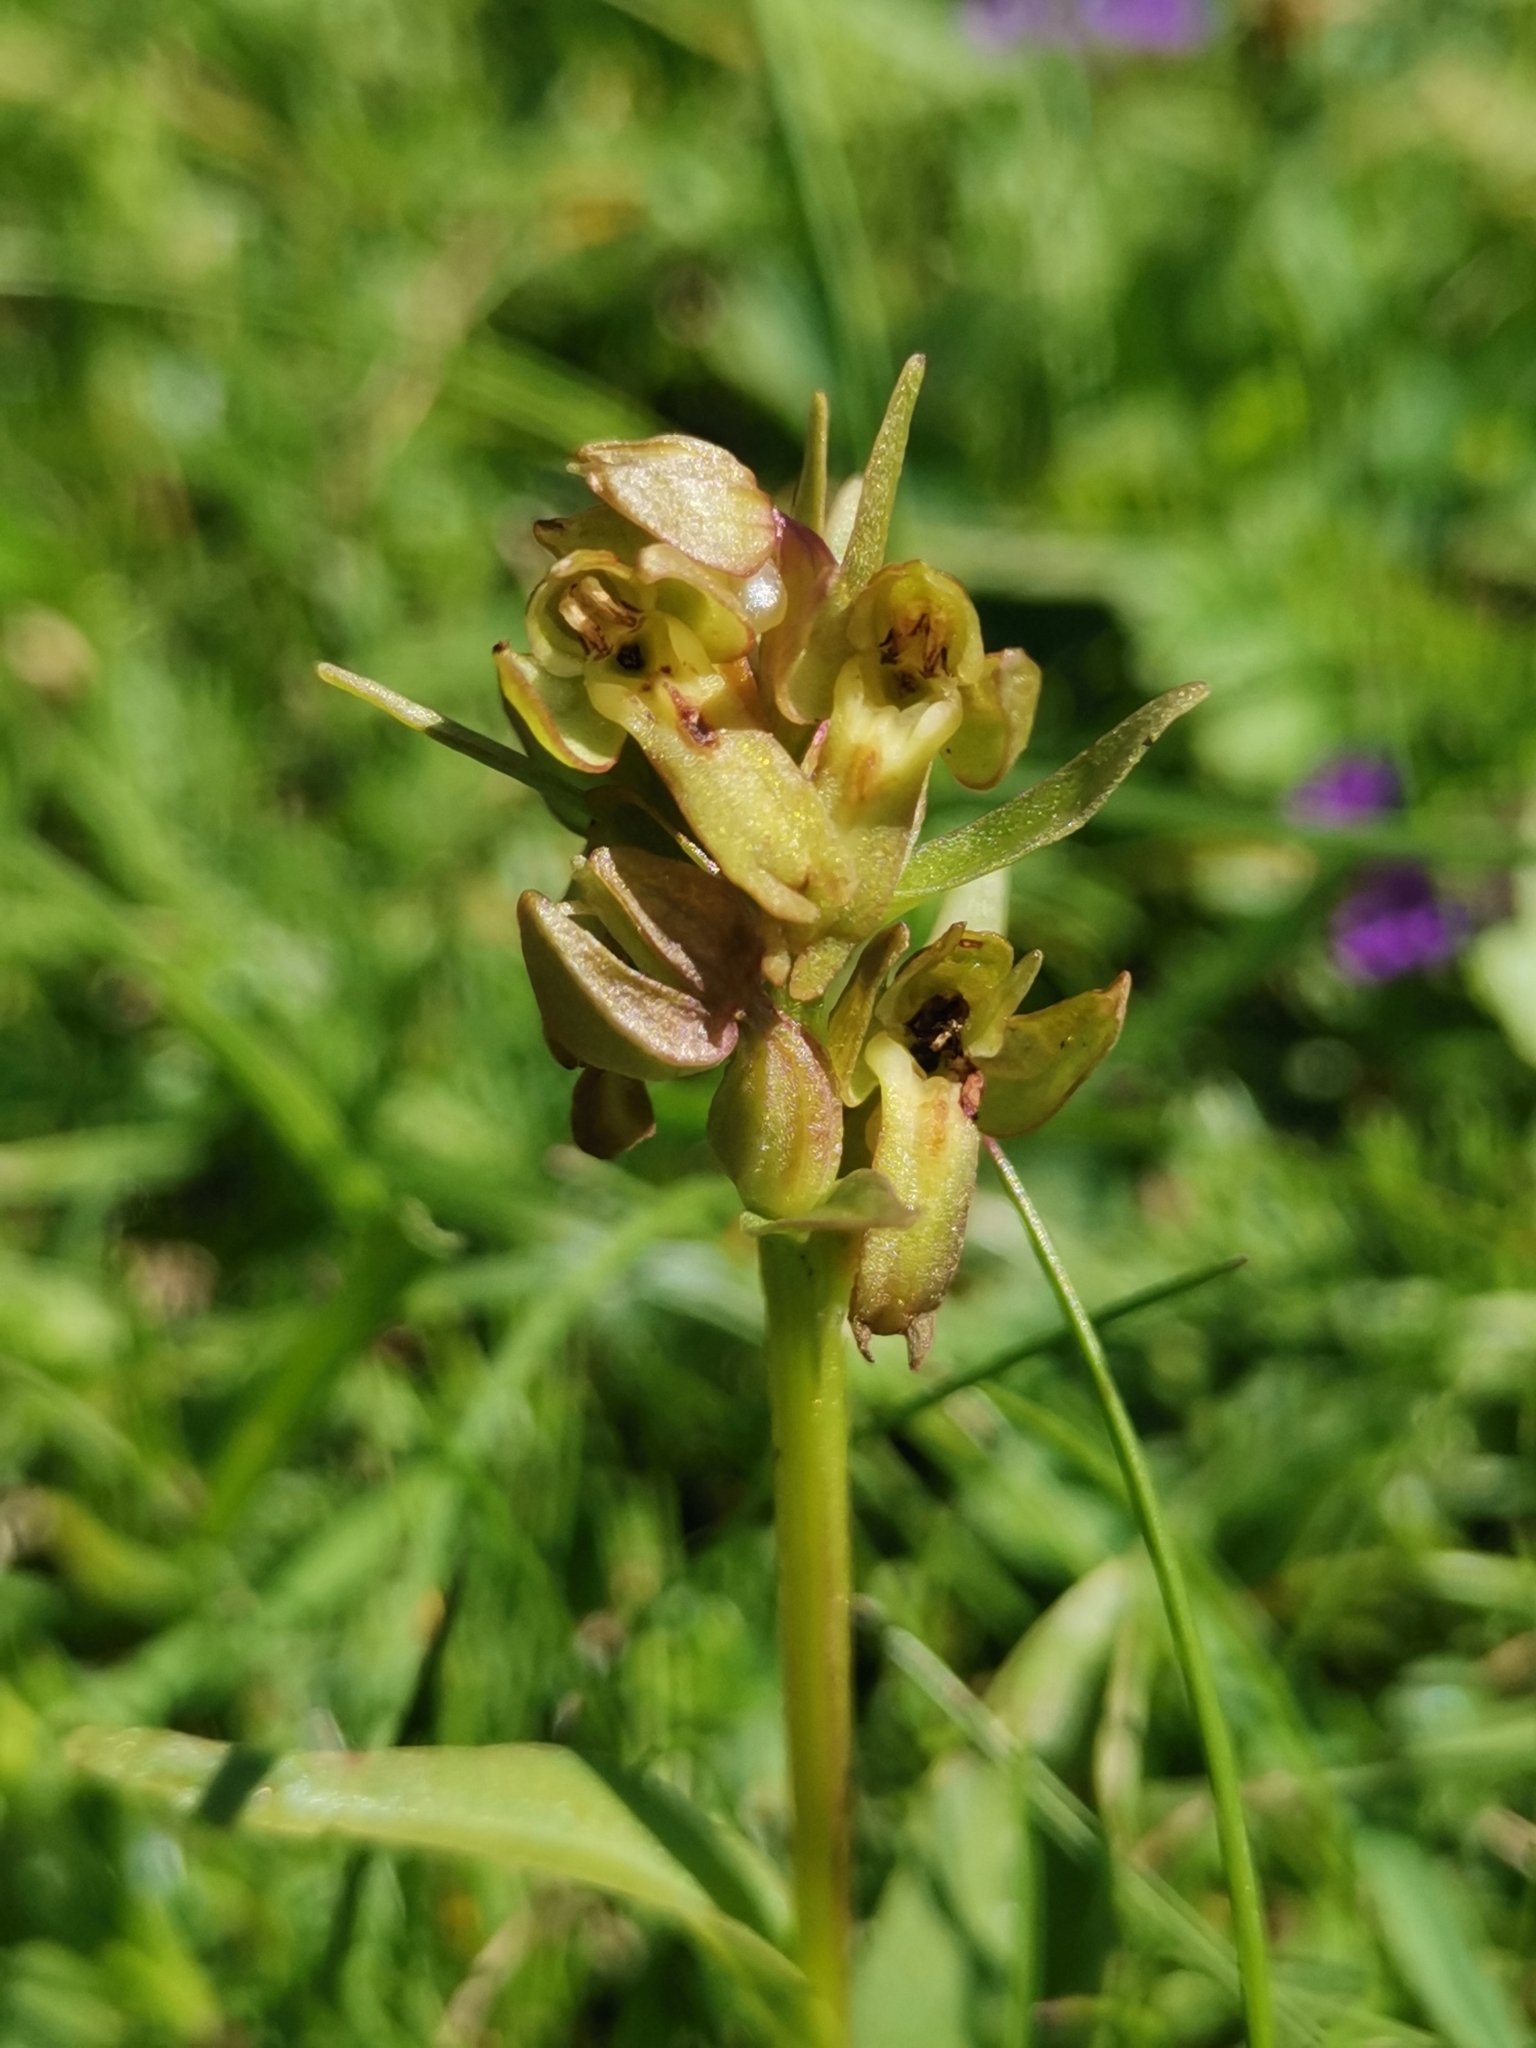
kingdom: Plantae
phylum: Tracheophyta
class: Liliopsida
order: Asparagales
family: Orchidaceae
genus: Dactylorhiza
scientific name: Dactylorhiza viridis
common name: Longbract frog orchid
